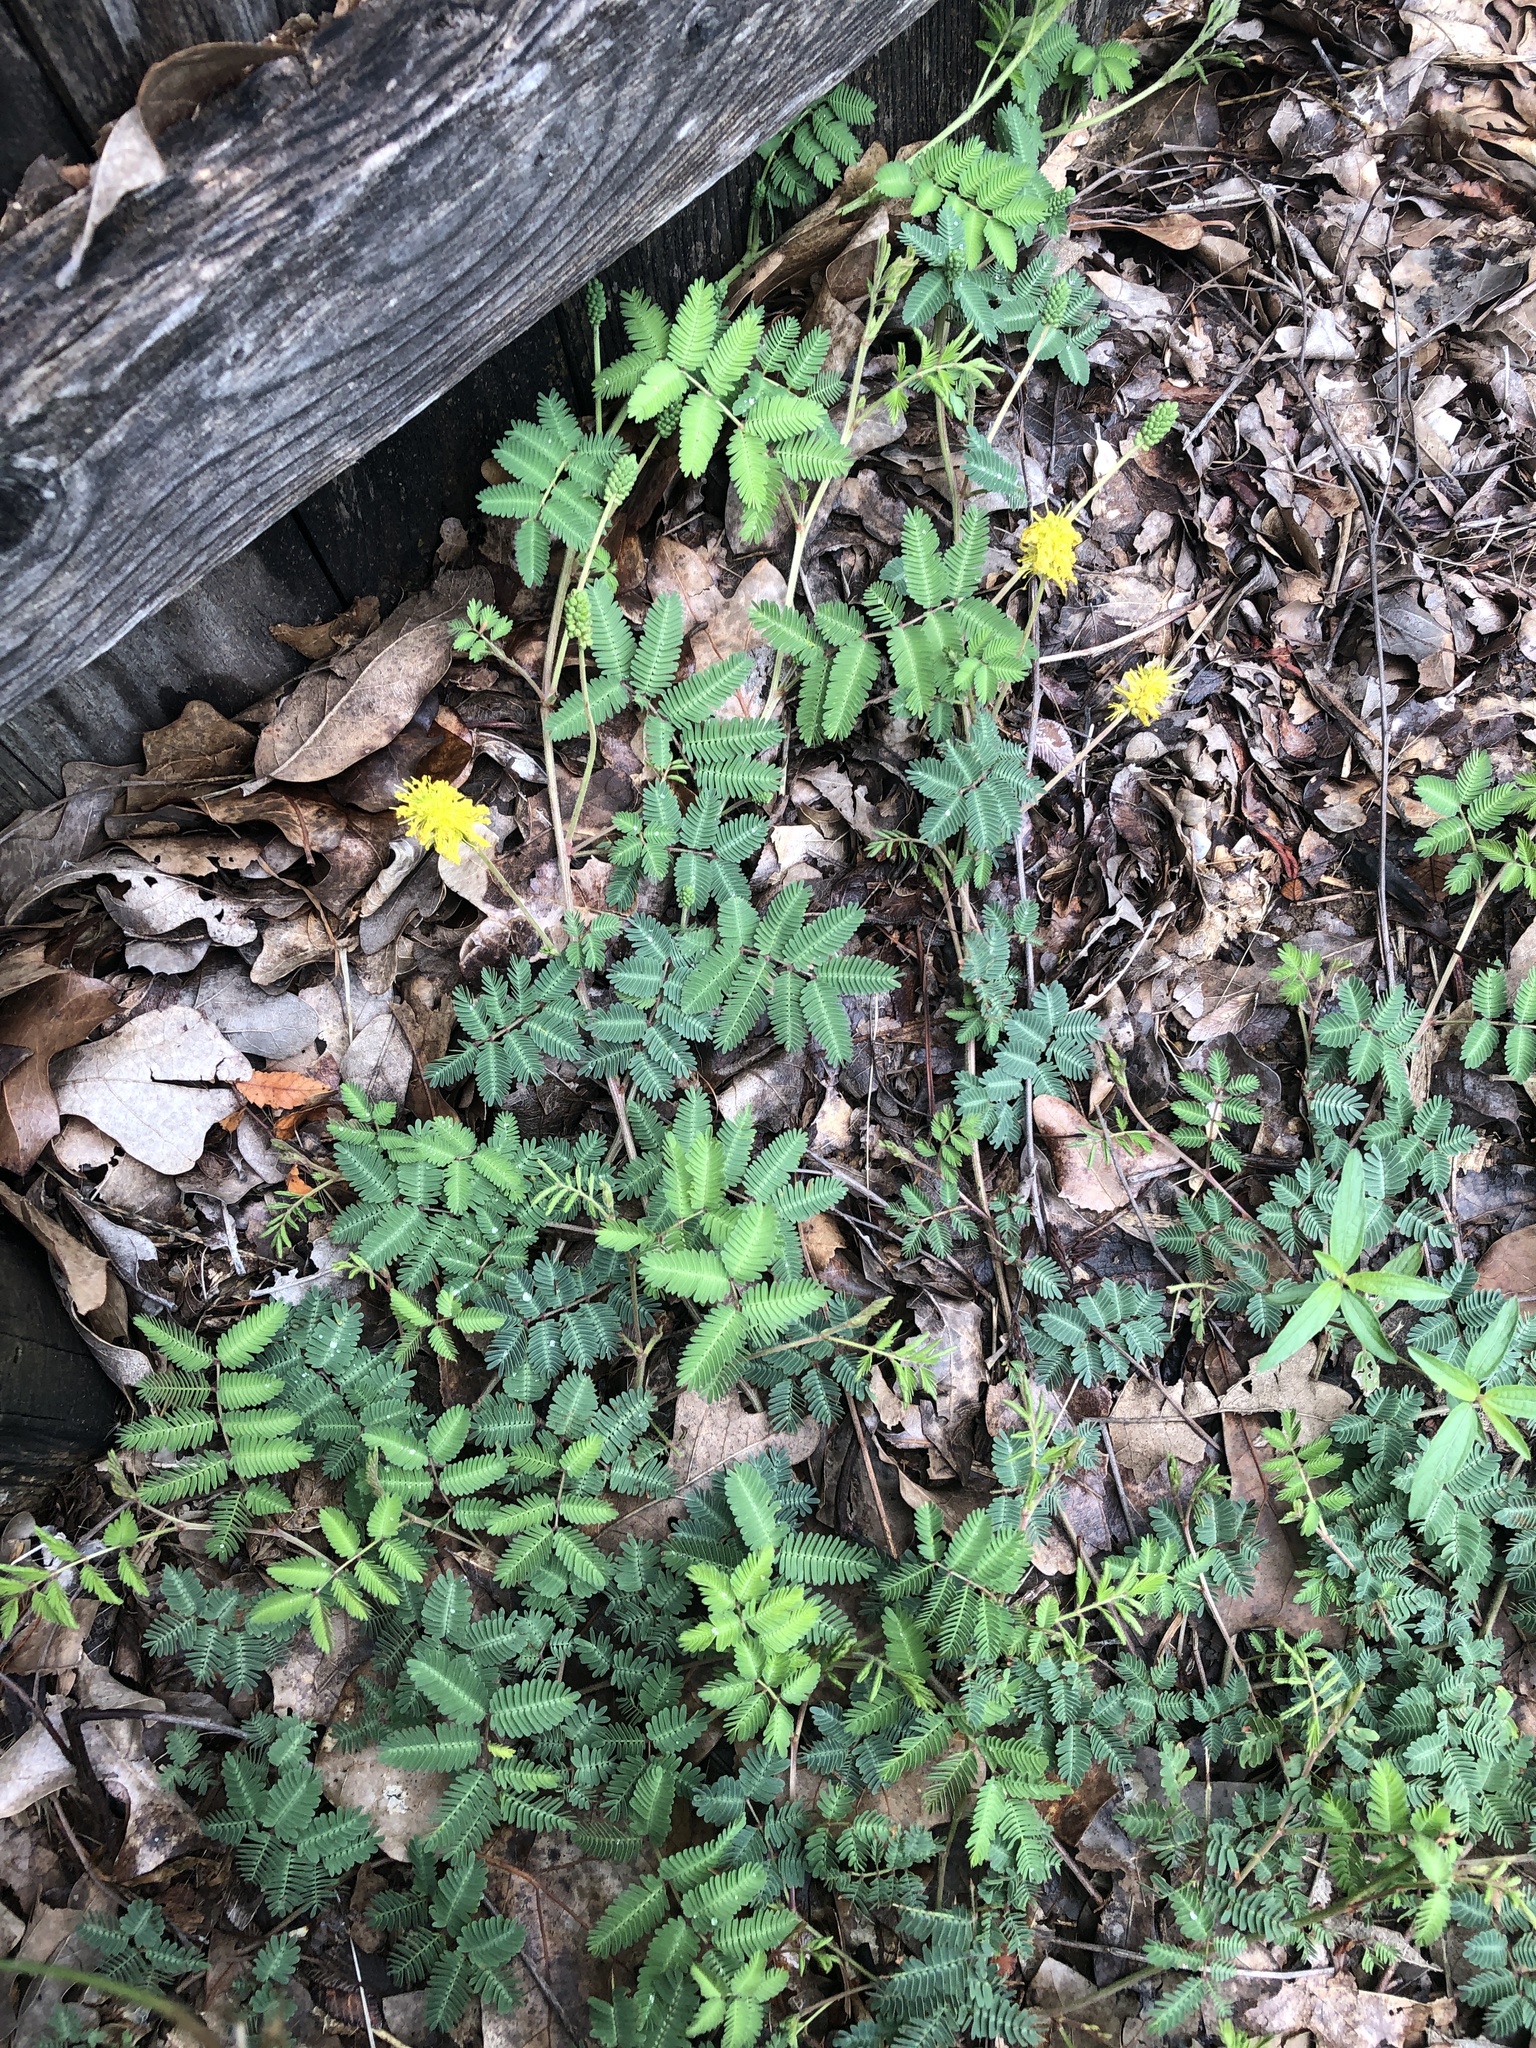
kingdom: Plantae
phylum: Tracheophyta
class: Magnoliopsida
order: Fabales
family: Fabaceae
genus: Neptunia
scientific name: Neptunia lutea
